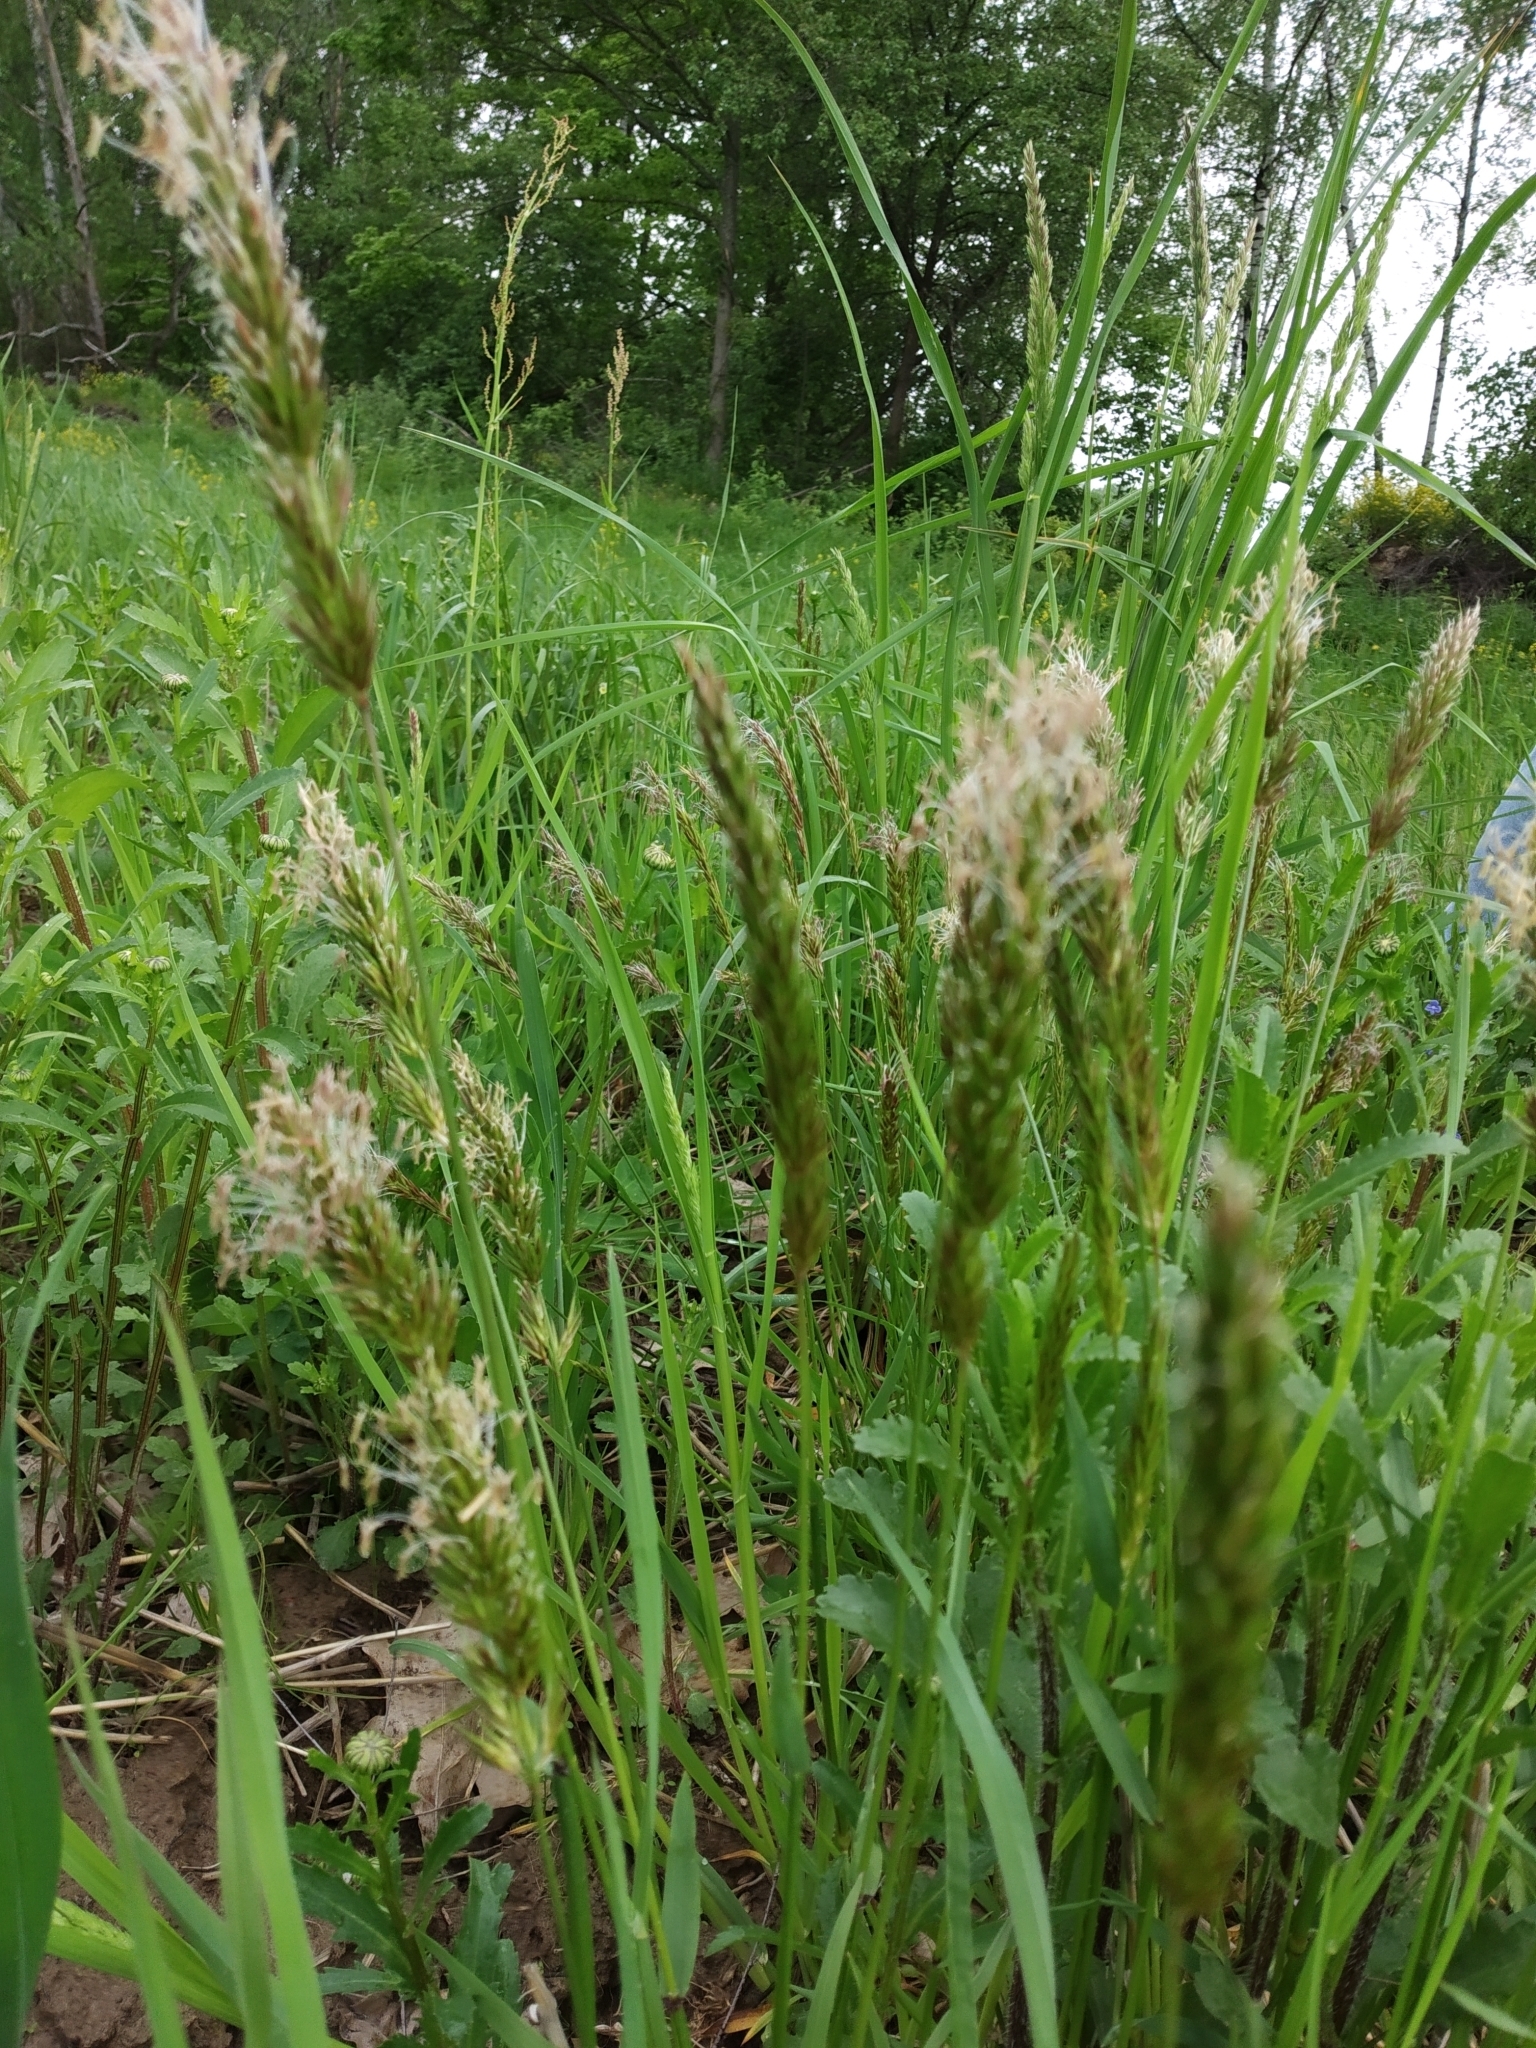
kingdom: Plantae
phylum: Tracheophyta
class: Liliopsida
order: Poales
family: Poaceae
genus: Anthoxanthum
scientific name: Anthoxanthum odoratum
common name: Sweet vernalgrass
